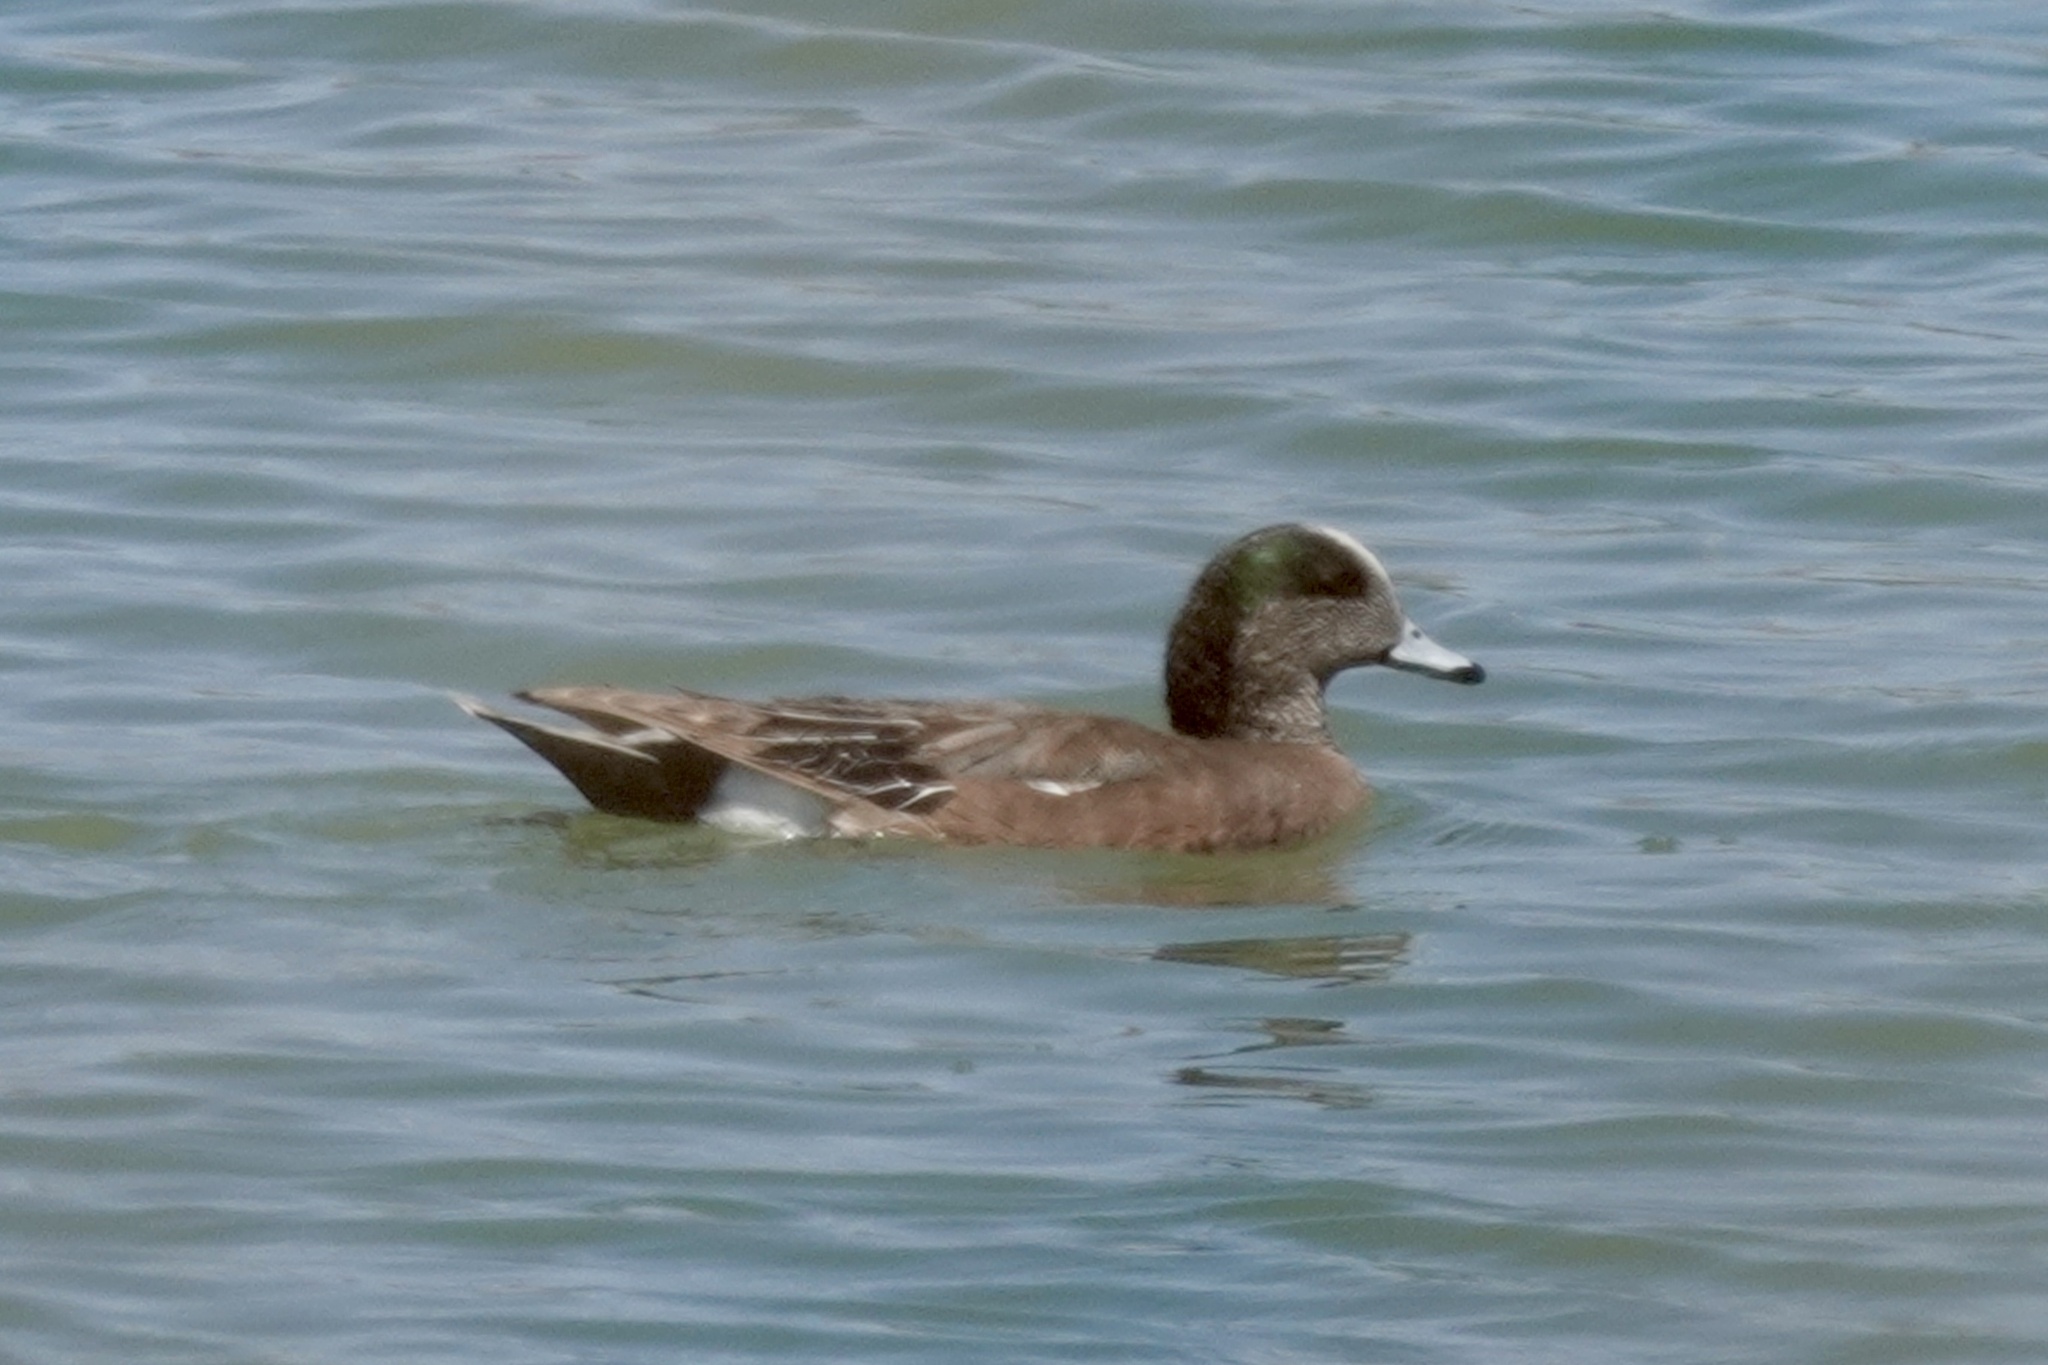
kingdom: Animalia
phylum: Chordata
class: Aves
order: Anseriformes
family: Anatidae
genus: Mareca
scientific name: Mareca americana
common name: American wigeon
